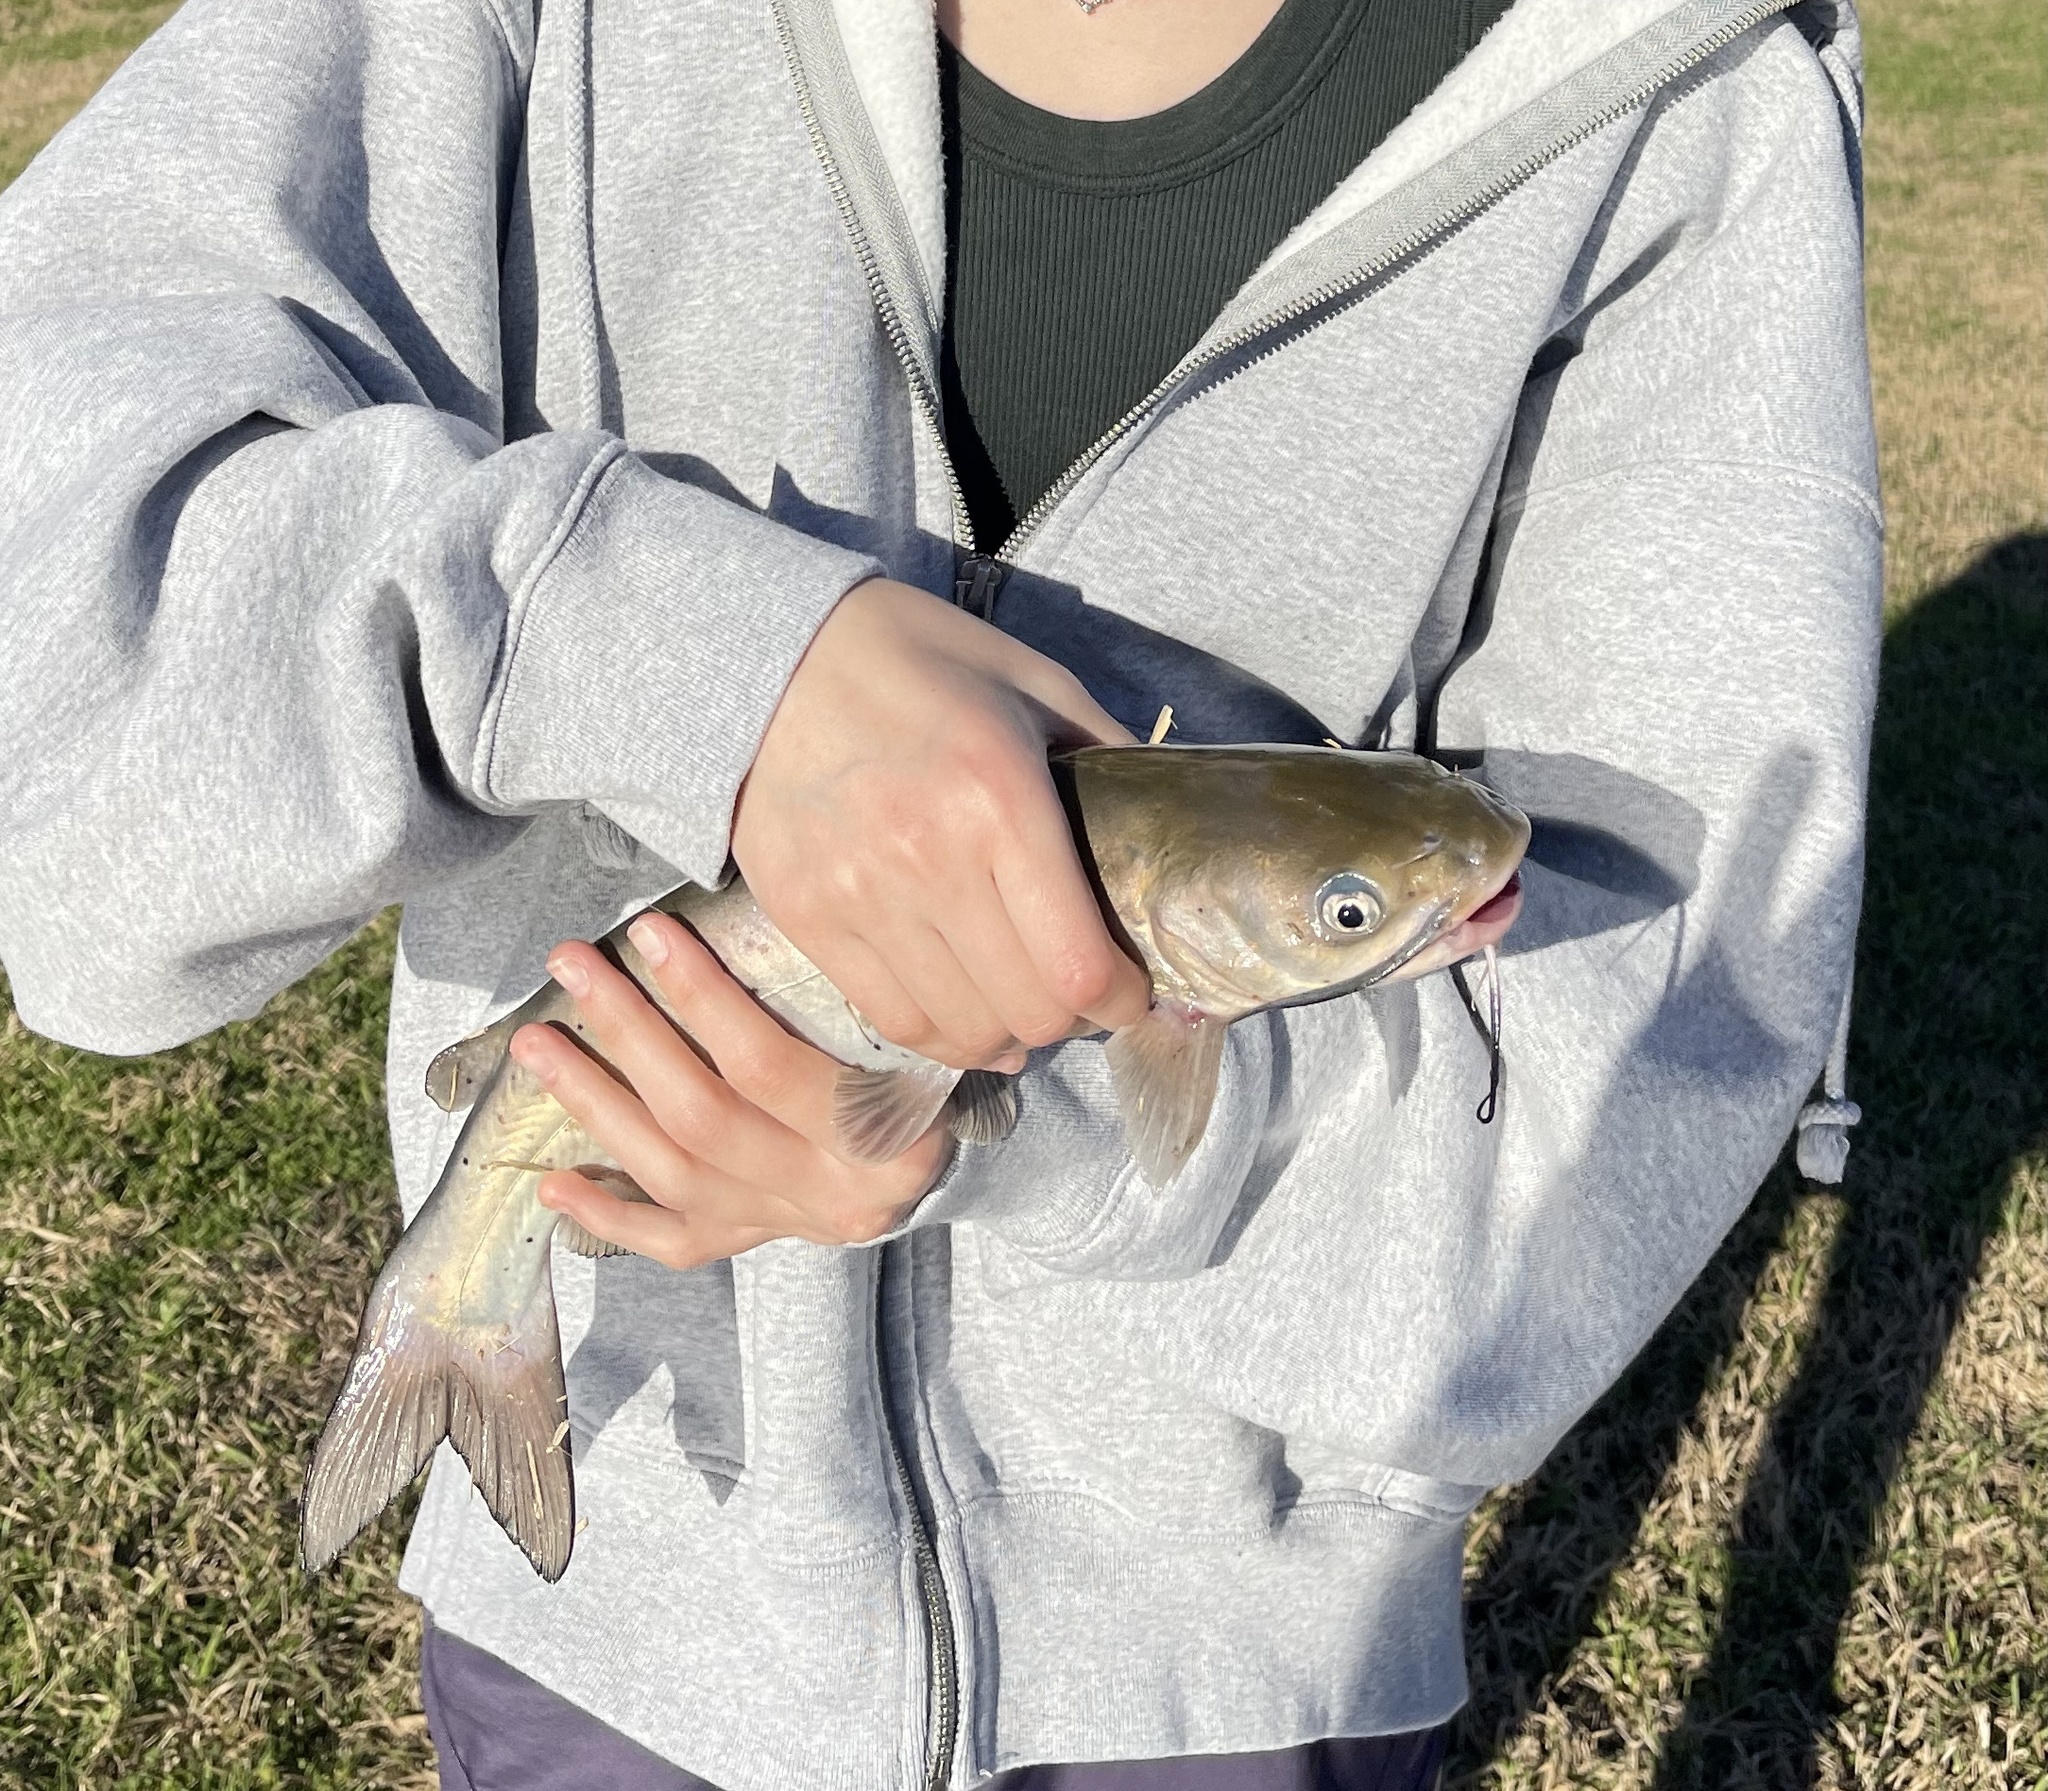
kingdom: Animalia
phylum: Chordata
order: Siluriformes
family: Ictaluridae
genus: Ictalurus
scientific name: Ictalurus punctatus
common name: Channel catfish
